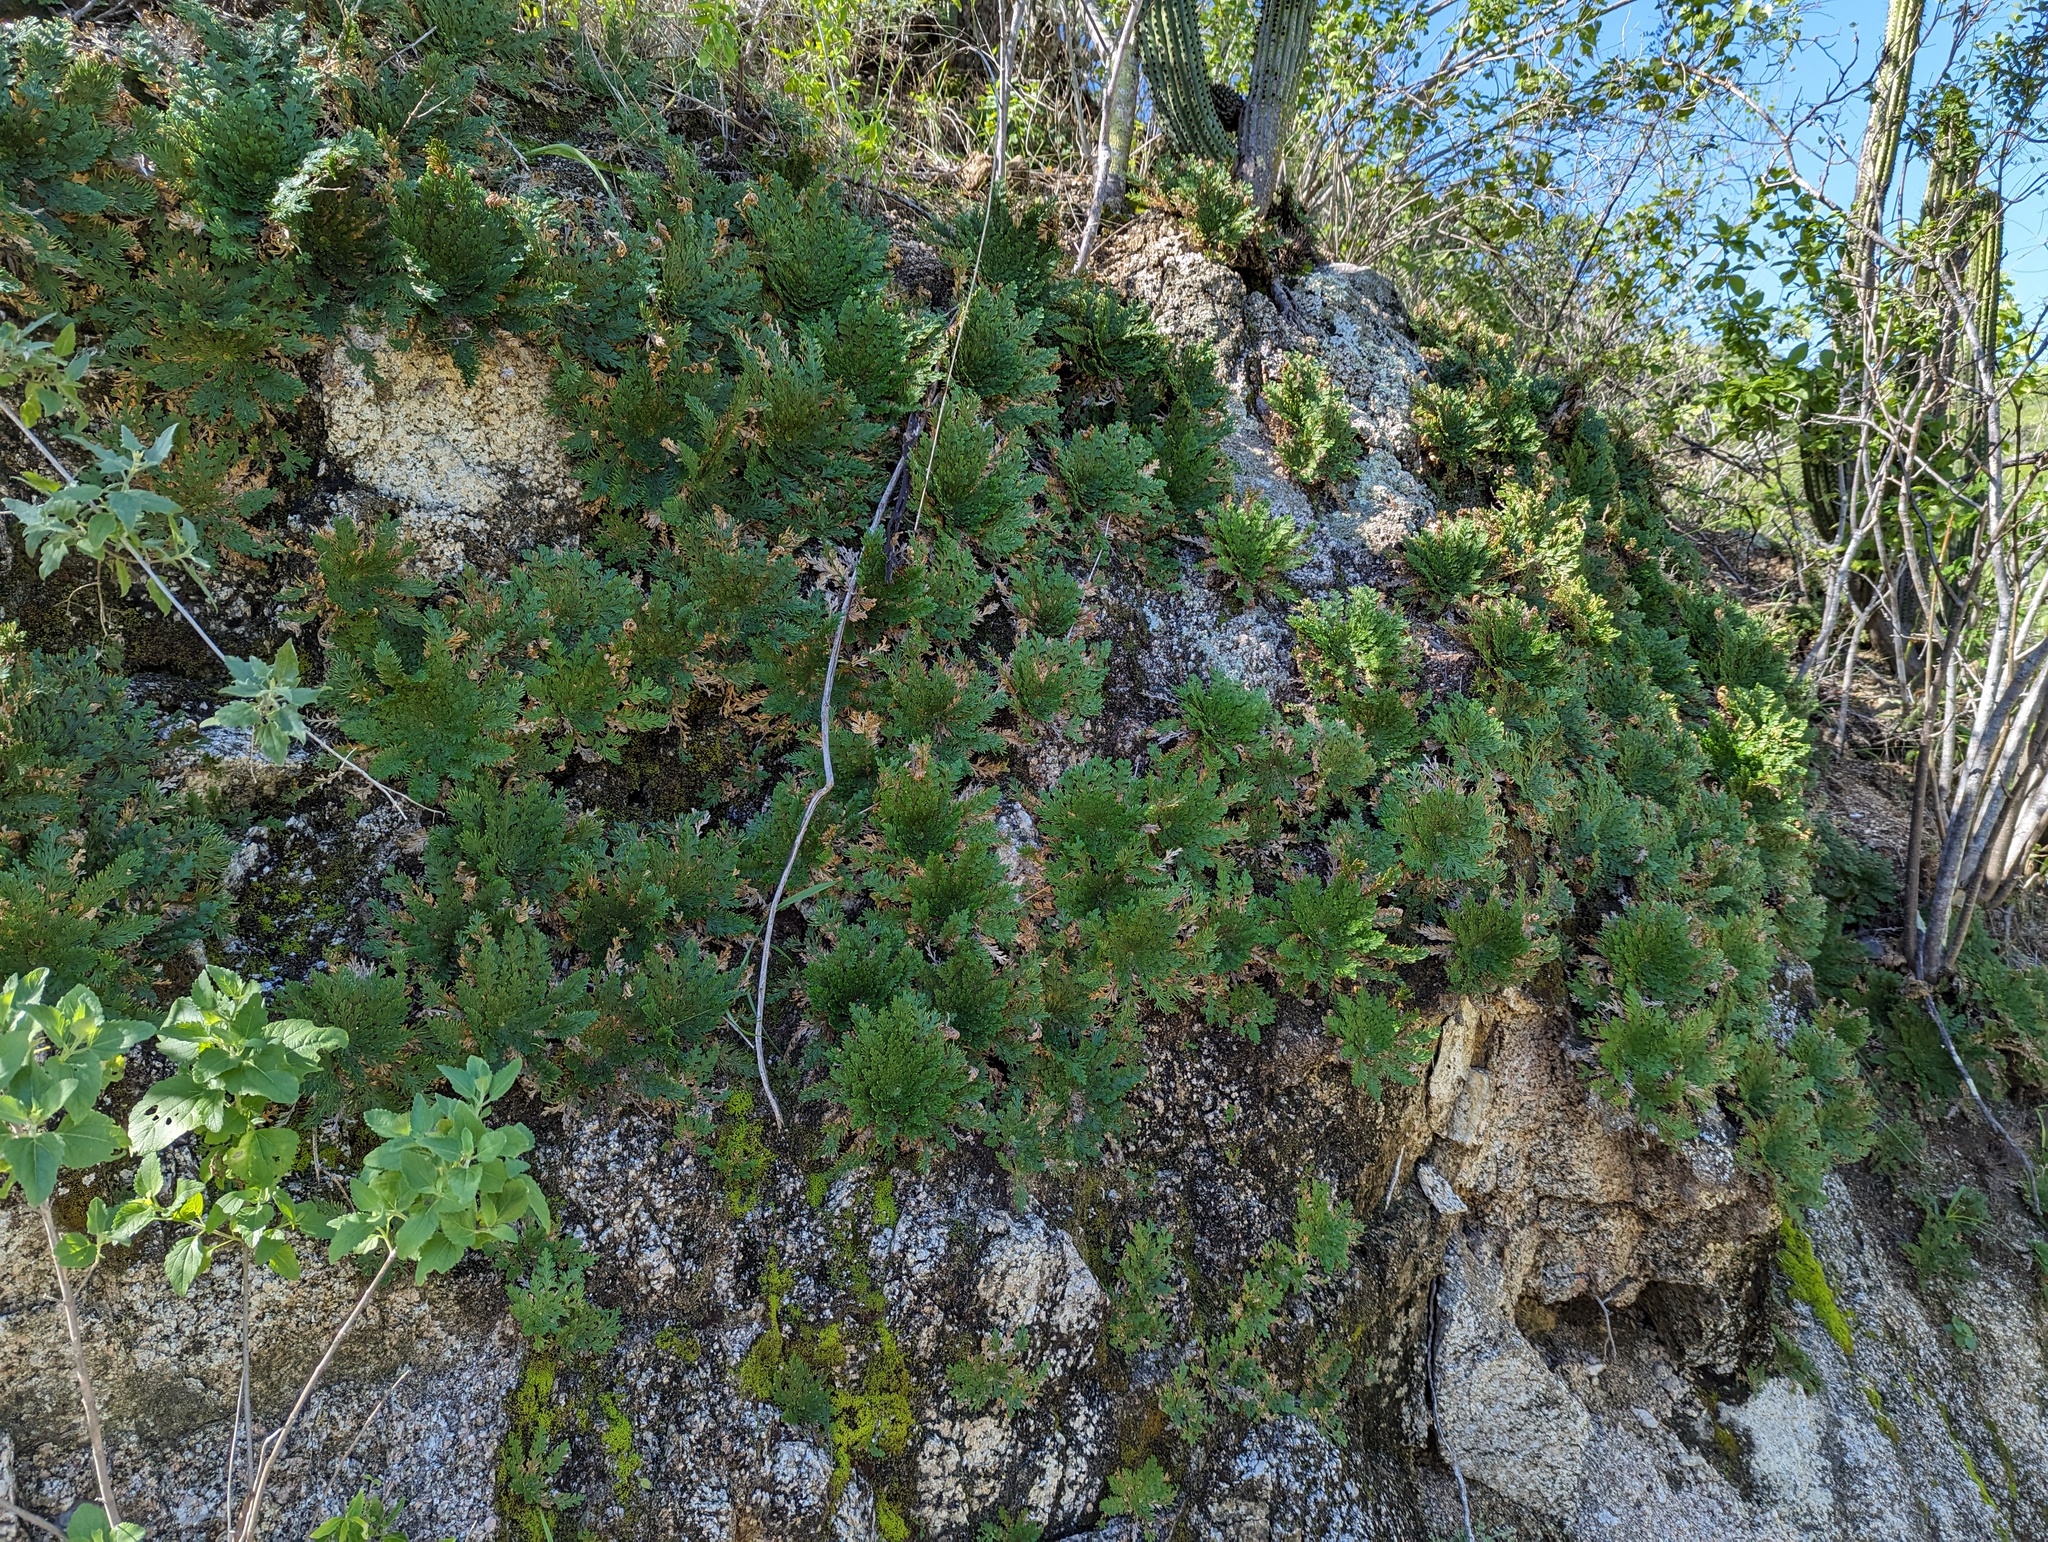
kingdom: Plantae
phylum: Tracheophyta
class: Lycopodiopsida
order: Selaginellales
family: Selaginellaceae
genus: Selaginella
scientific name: Selaginella lepidophylla
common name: Rose-of-jericho
